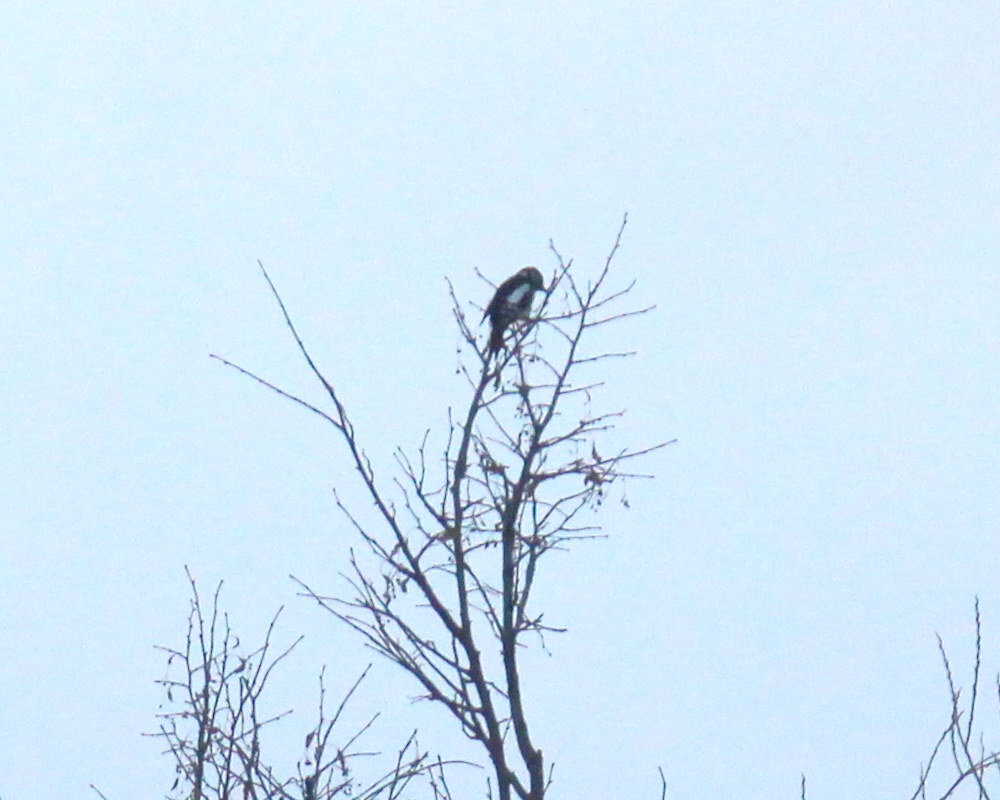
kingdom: Animalia
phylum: Chordata
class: Aves
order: Piciformes
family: Picidae
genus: Dendrocopos
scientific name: Dendrocopos major
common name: Great spotted woodpecker
